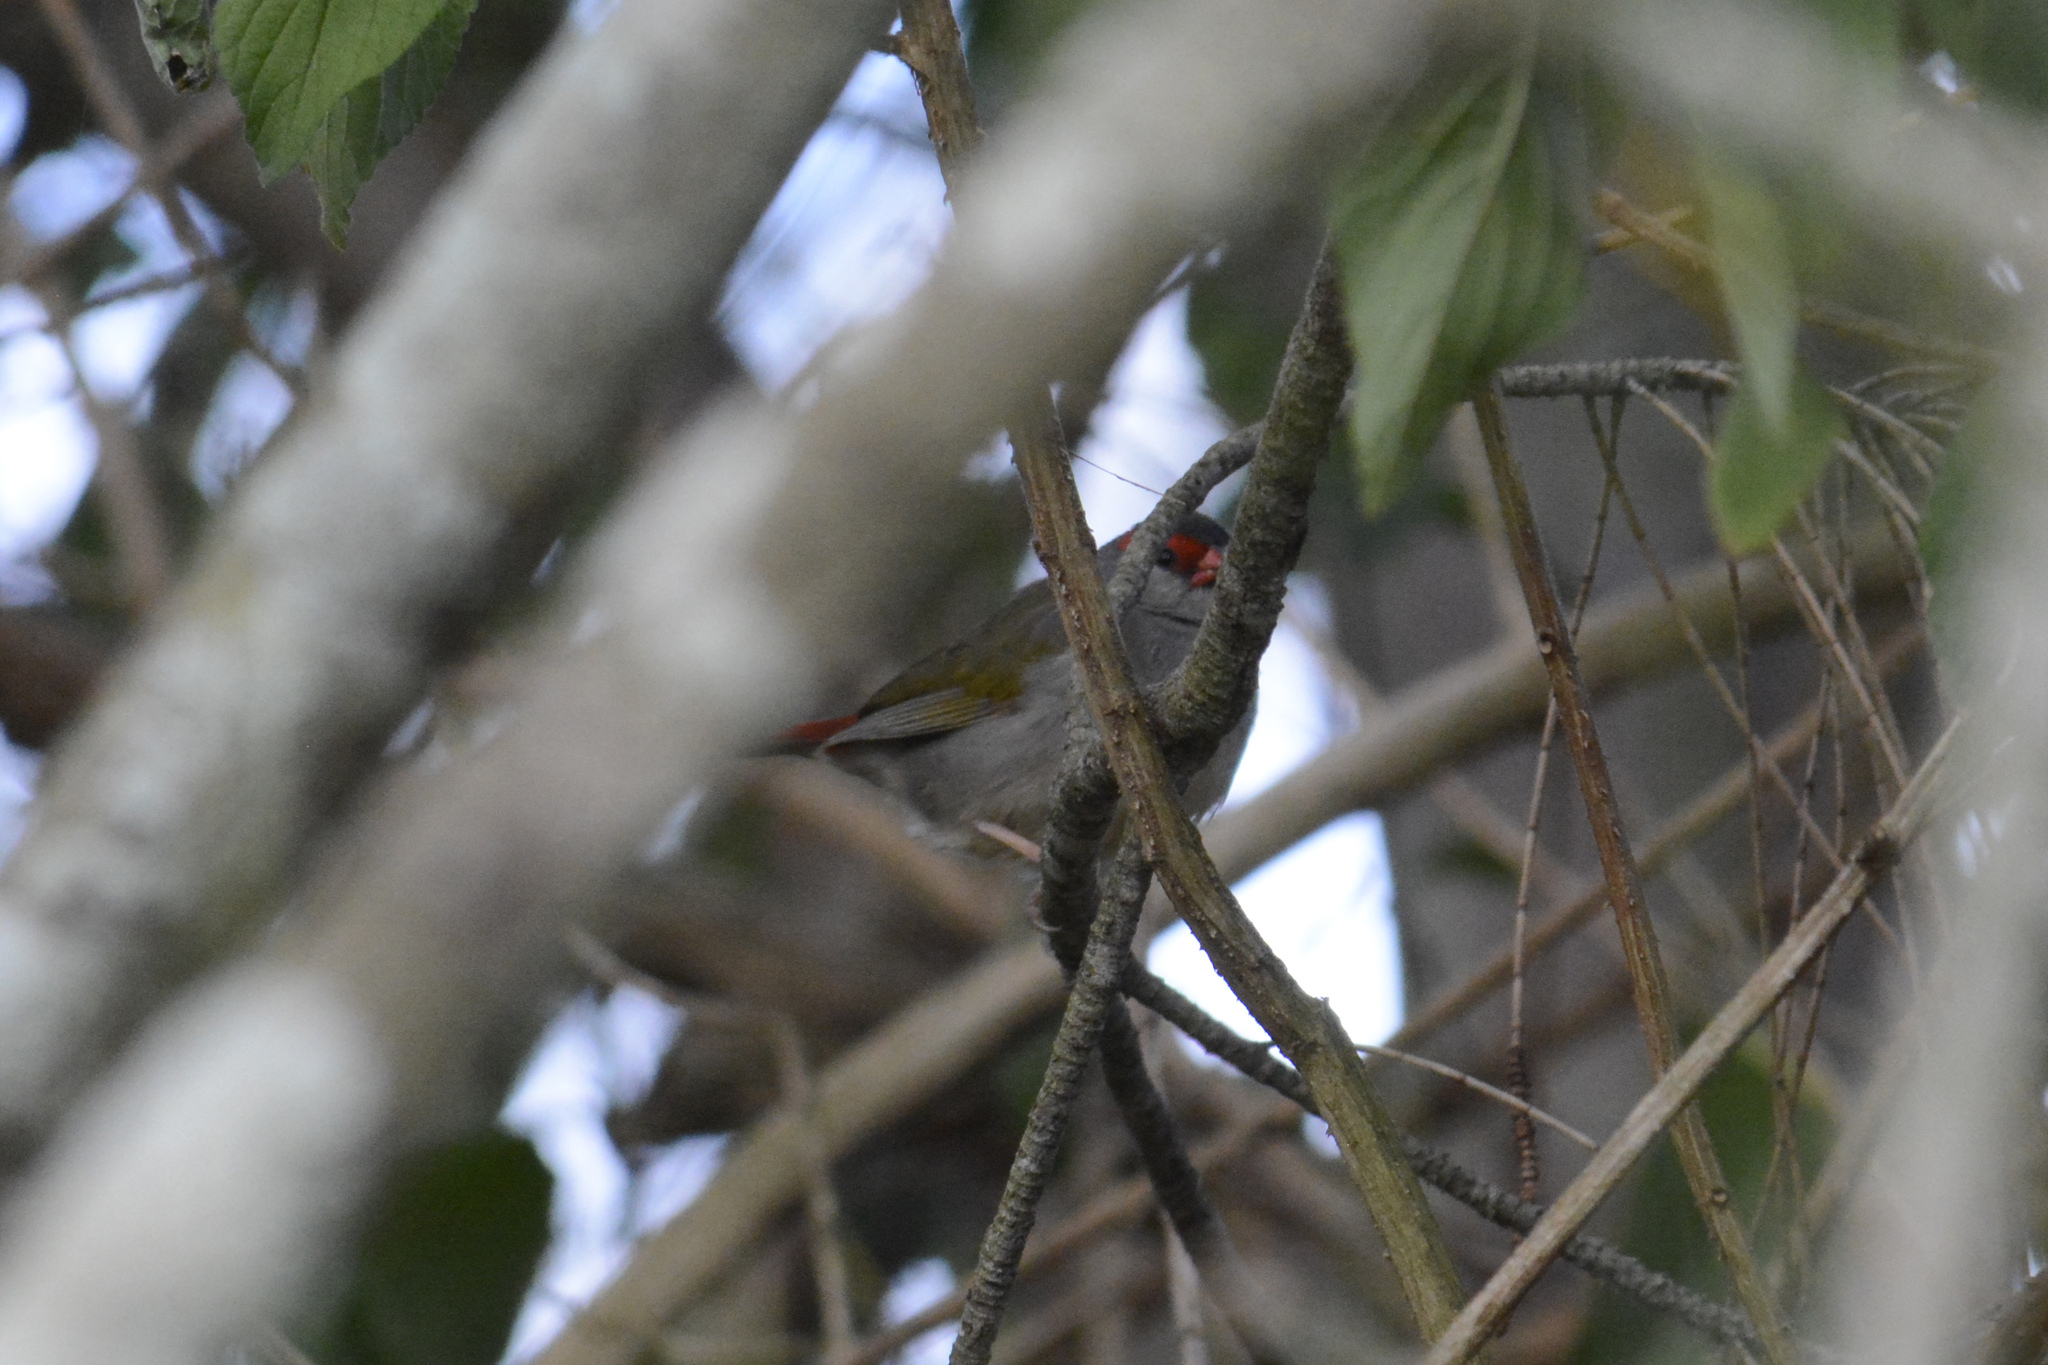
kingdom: Animalia
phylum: Chordata
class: Aves
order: Passeriformes
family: Estrildidae
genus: Neochmia
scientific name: Neochmia temporalis
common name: Red-browed finch
